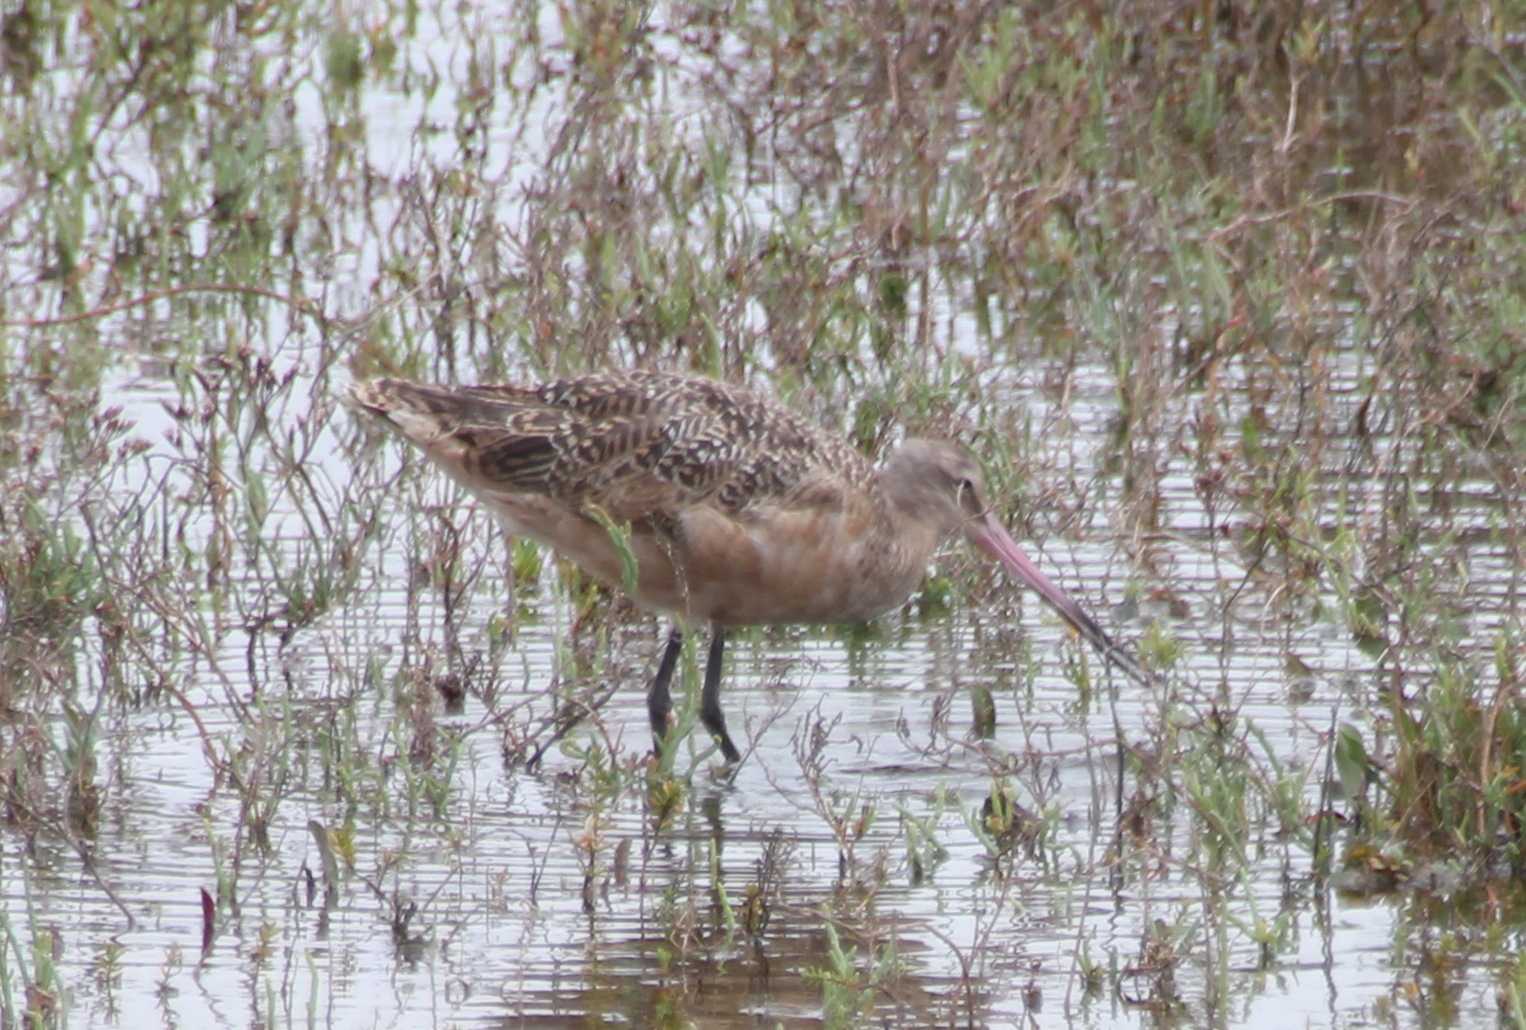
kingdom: Animalia
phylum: Chordata
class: Aves
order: Charadriiformes
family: Scolopacidae
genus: Limosa
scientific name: Limosa fedoa
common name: Marbled godwit
